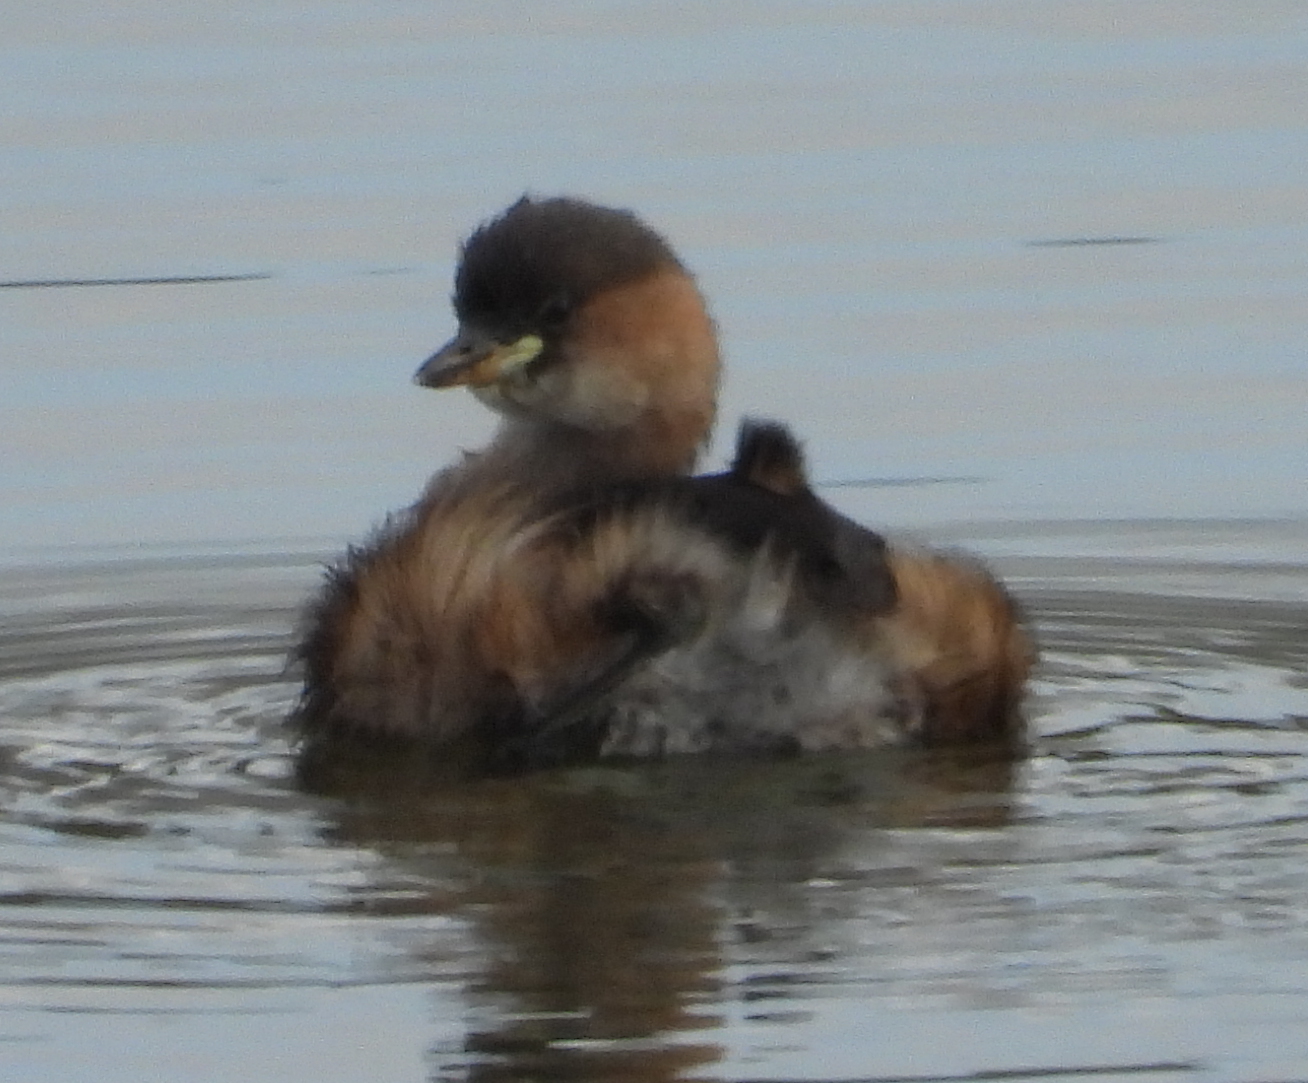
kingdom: Animalia
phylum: Chordata
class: Aves
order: Podicipediformes
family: Podicipedidae
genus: Tachybaptus
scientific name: Tachybaptus ruficollis
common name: Little grebe
